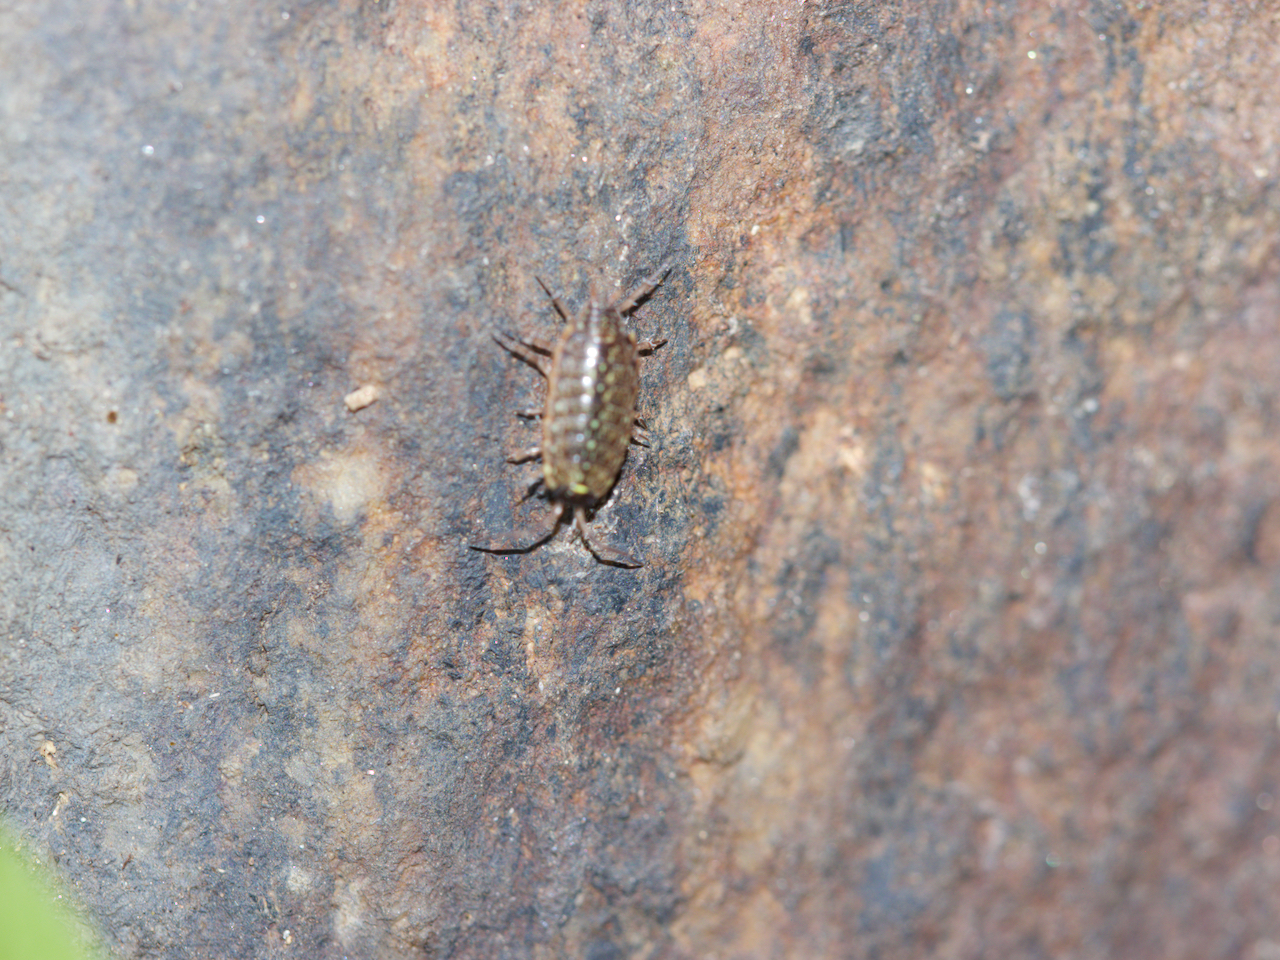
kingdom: Animalia
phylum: Arthropoda
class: Malacostraca
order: Isopoda
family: Philosciidae
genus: Philoscia
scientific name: Philoscia muscorum
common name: Common striped woodlouse
